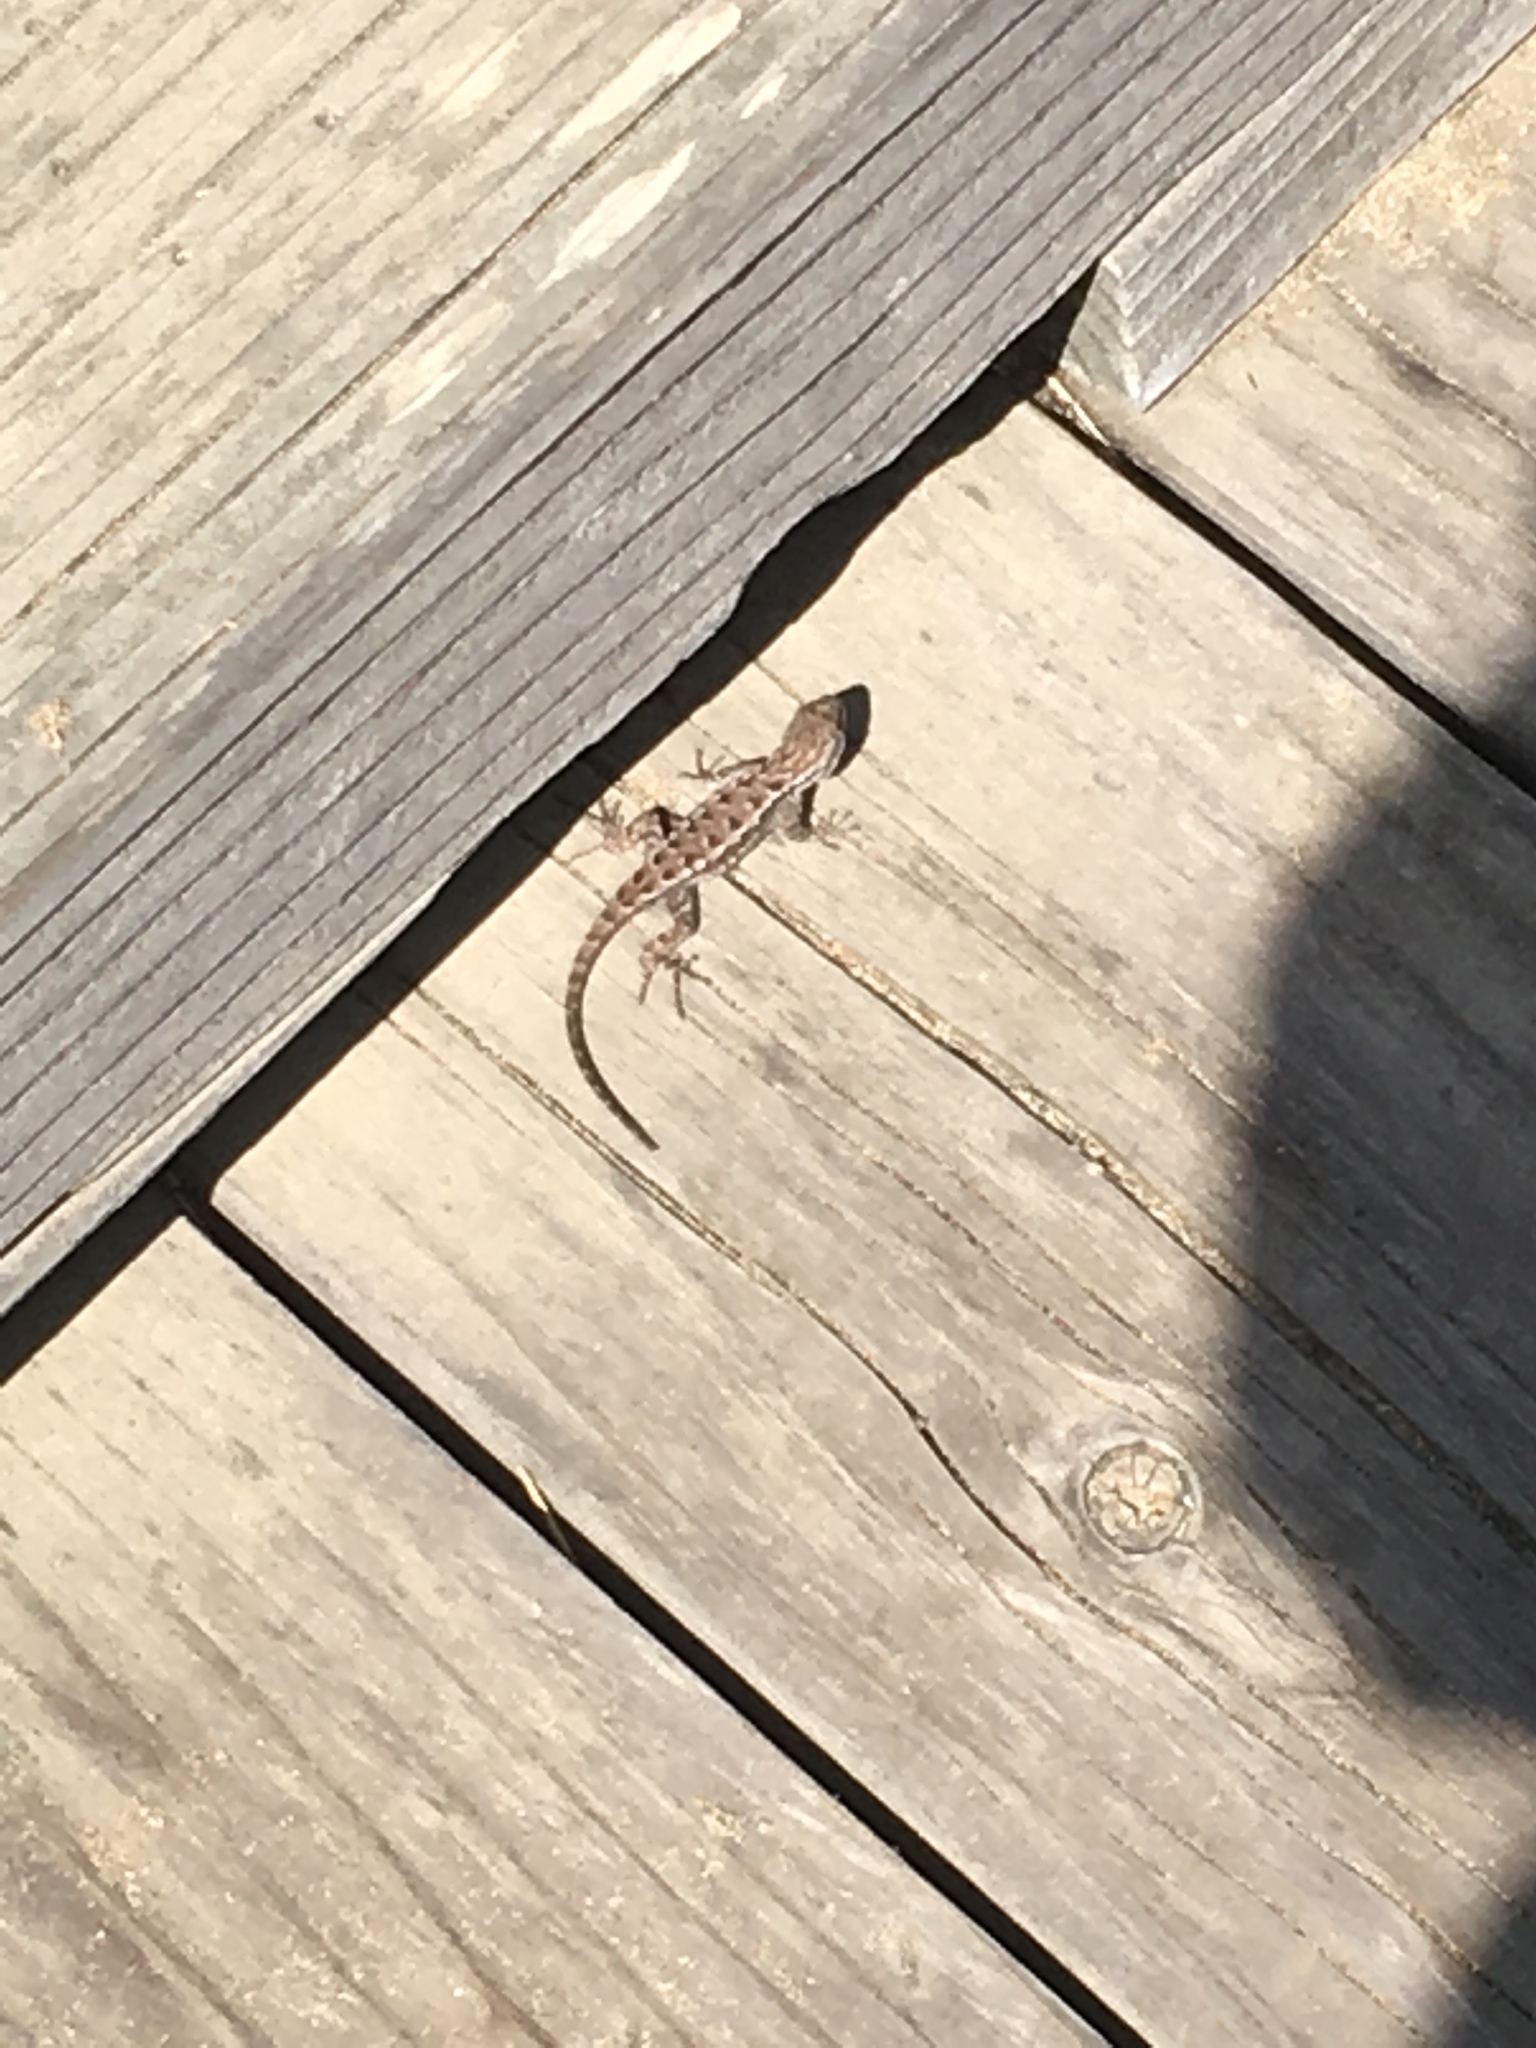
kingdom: Animalia
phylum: Chordata
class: Squamata
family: Phrynosomatidae
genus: Sceloporus
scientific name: Sceloporus occidentalis
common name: Western fence lizard
